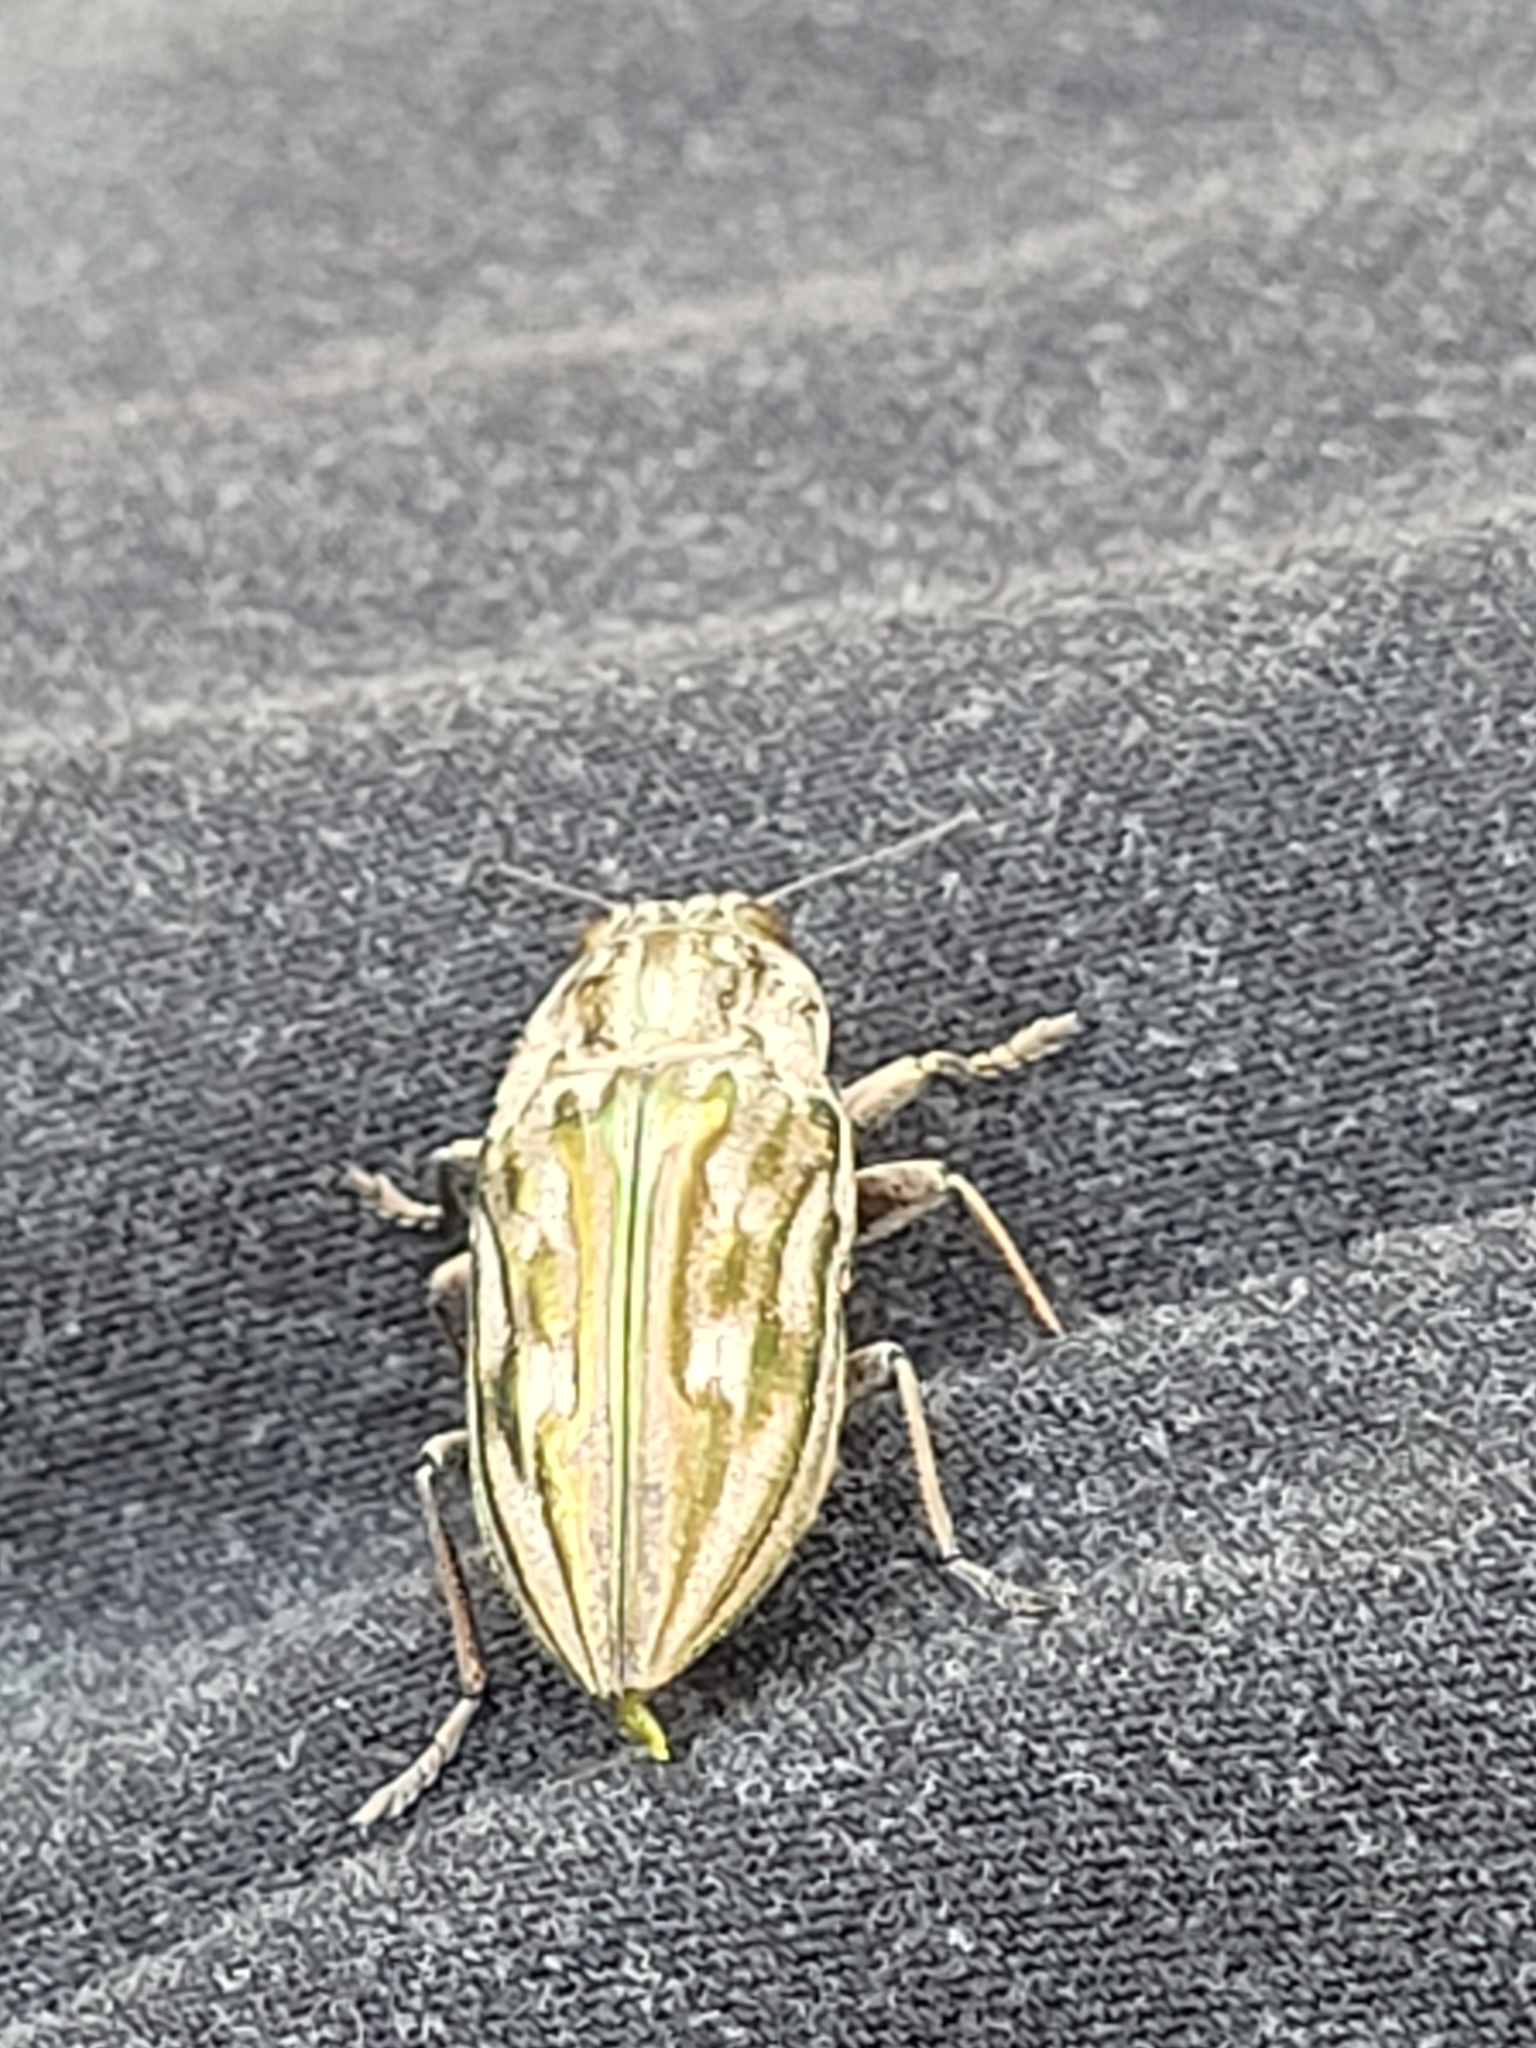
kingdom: Animalia
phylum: Arthropoda
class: Insecta
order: Coleoptera
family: Buprestidae
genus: Chalcophora
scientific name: Chalcophora georgiana
